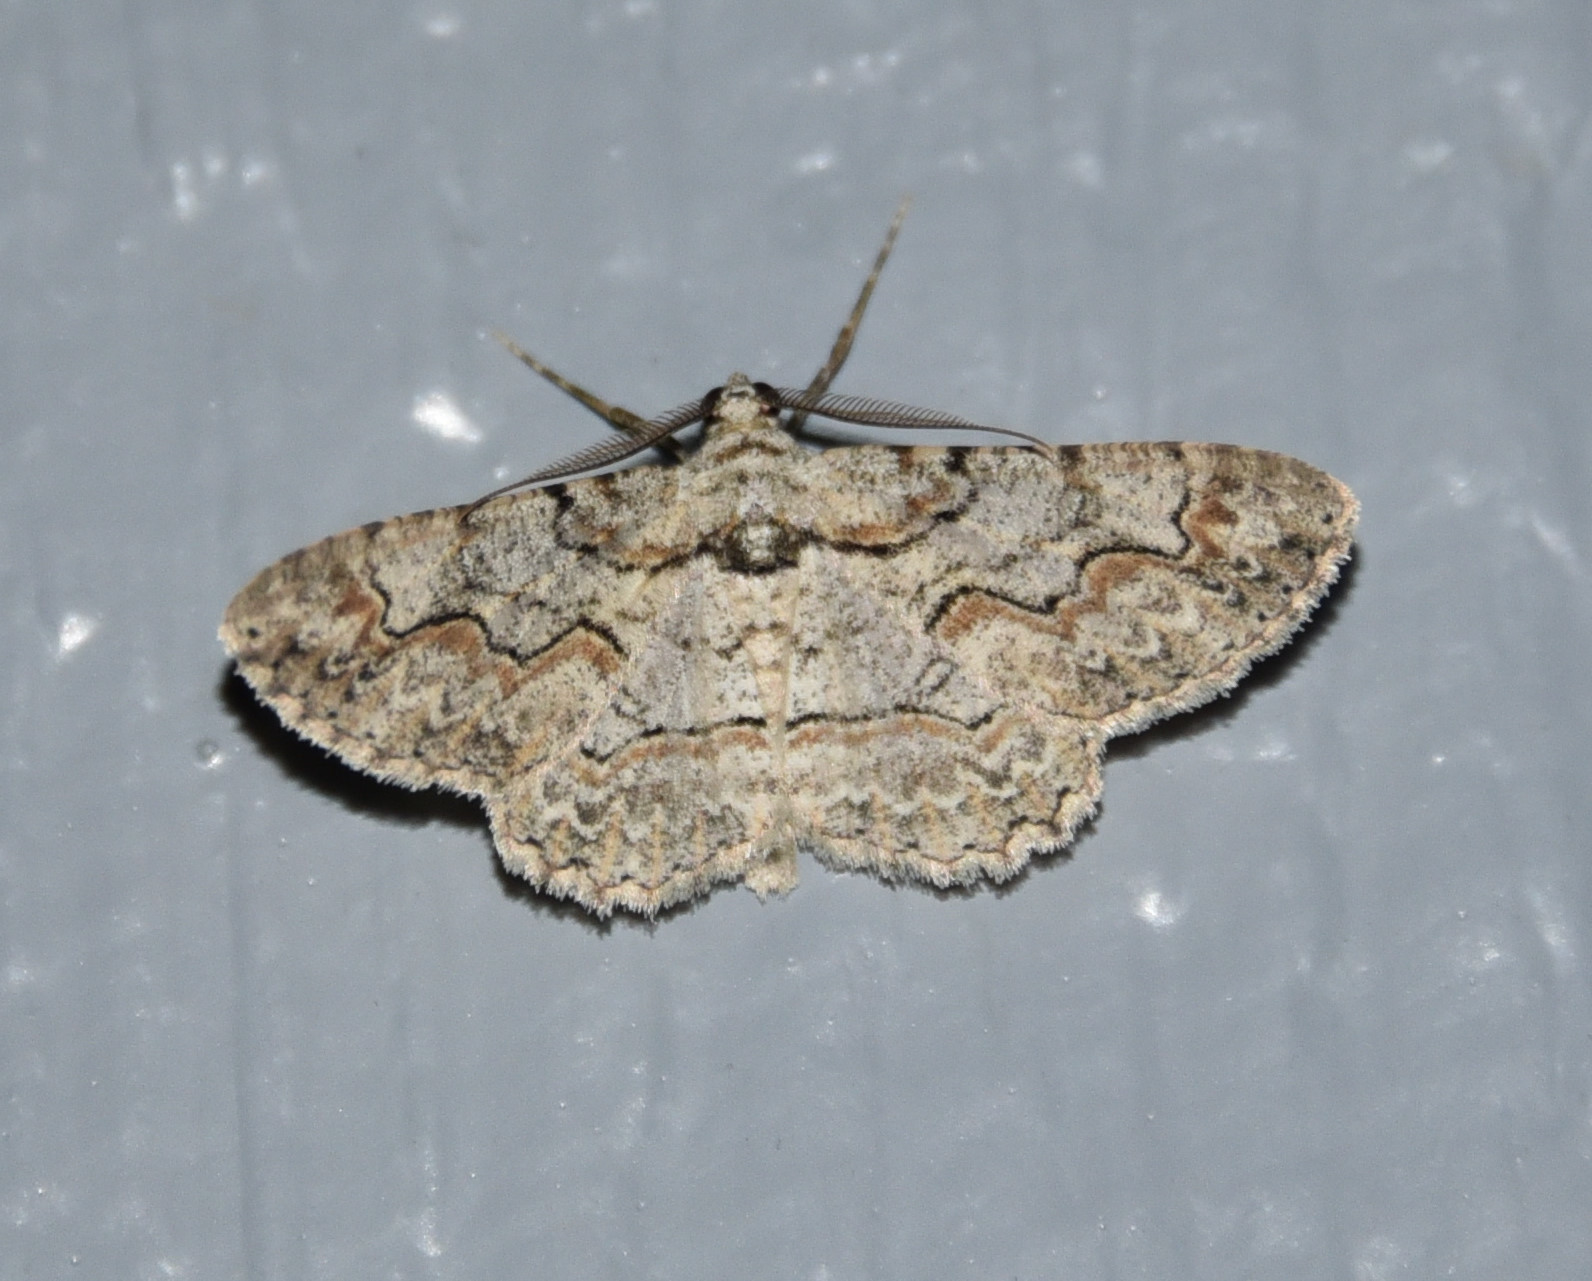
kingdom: Animalia
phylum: Arthropoda
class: Insecta
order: Lepidoptera
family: Geometridae
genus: Iridopsis
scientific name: Iridopsis defectaria
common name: Brown-shaded gray
